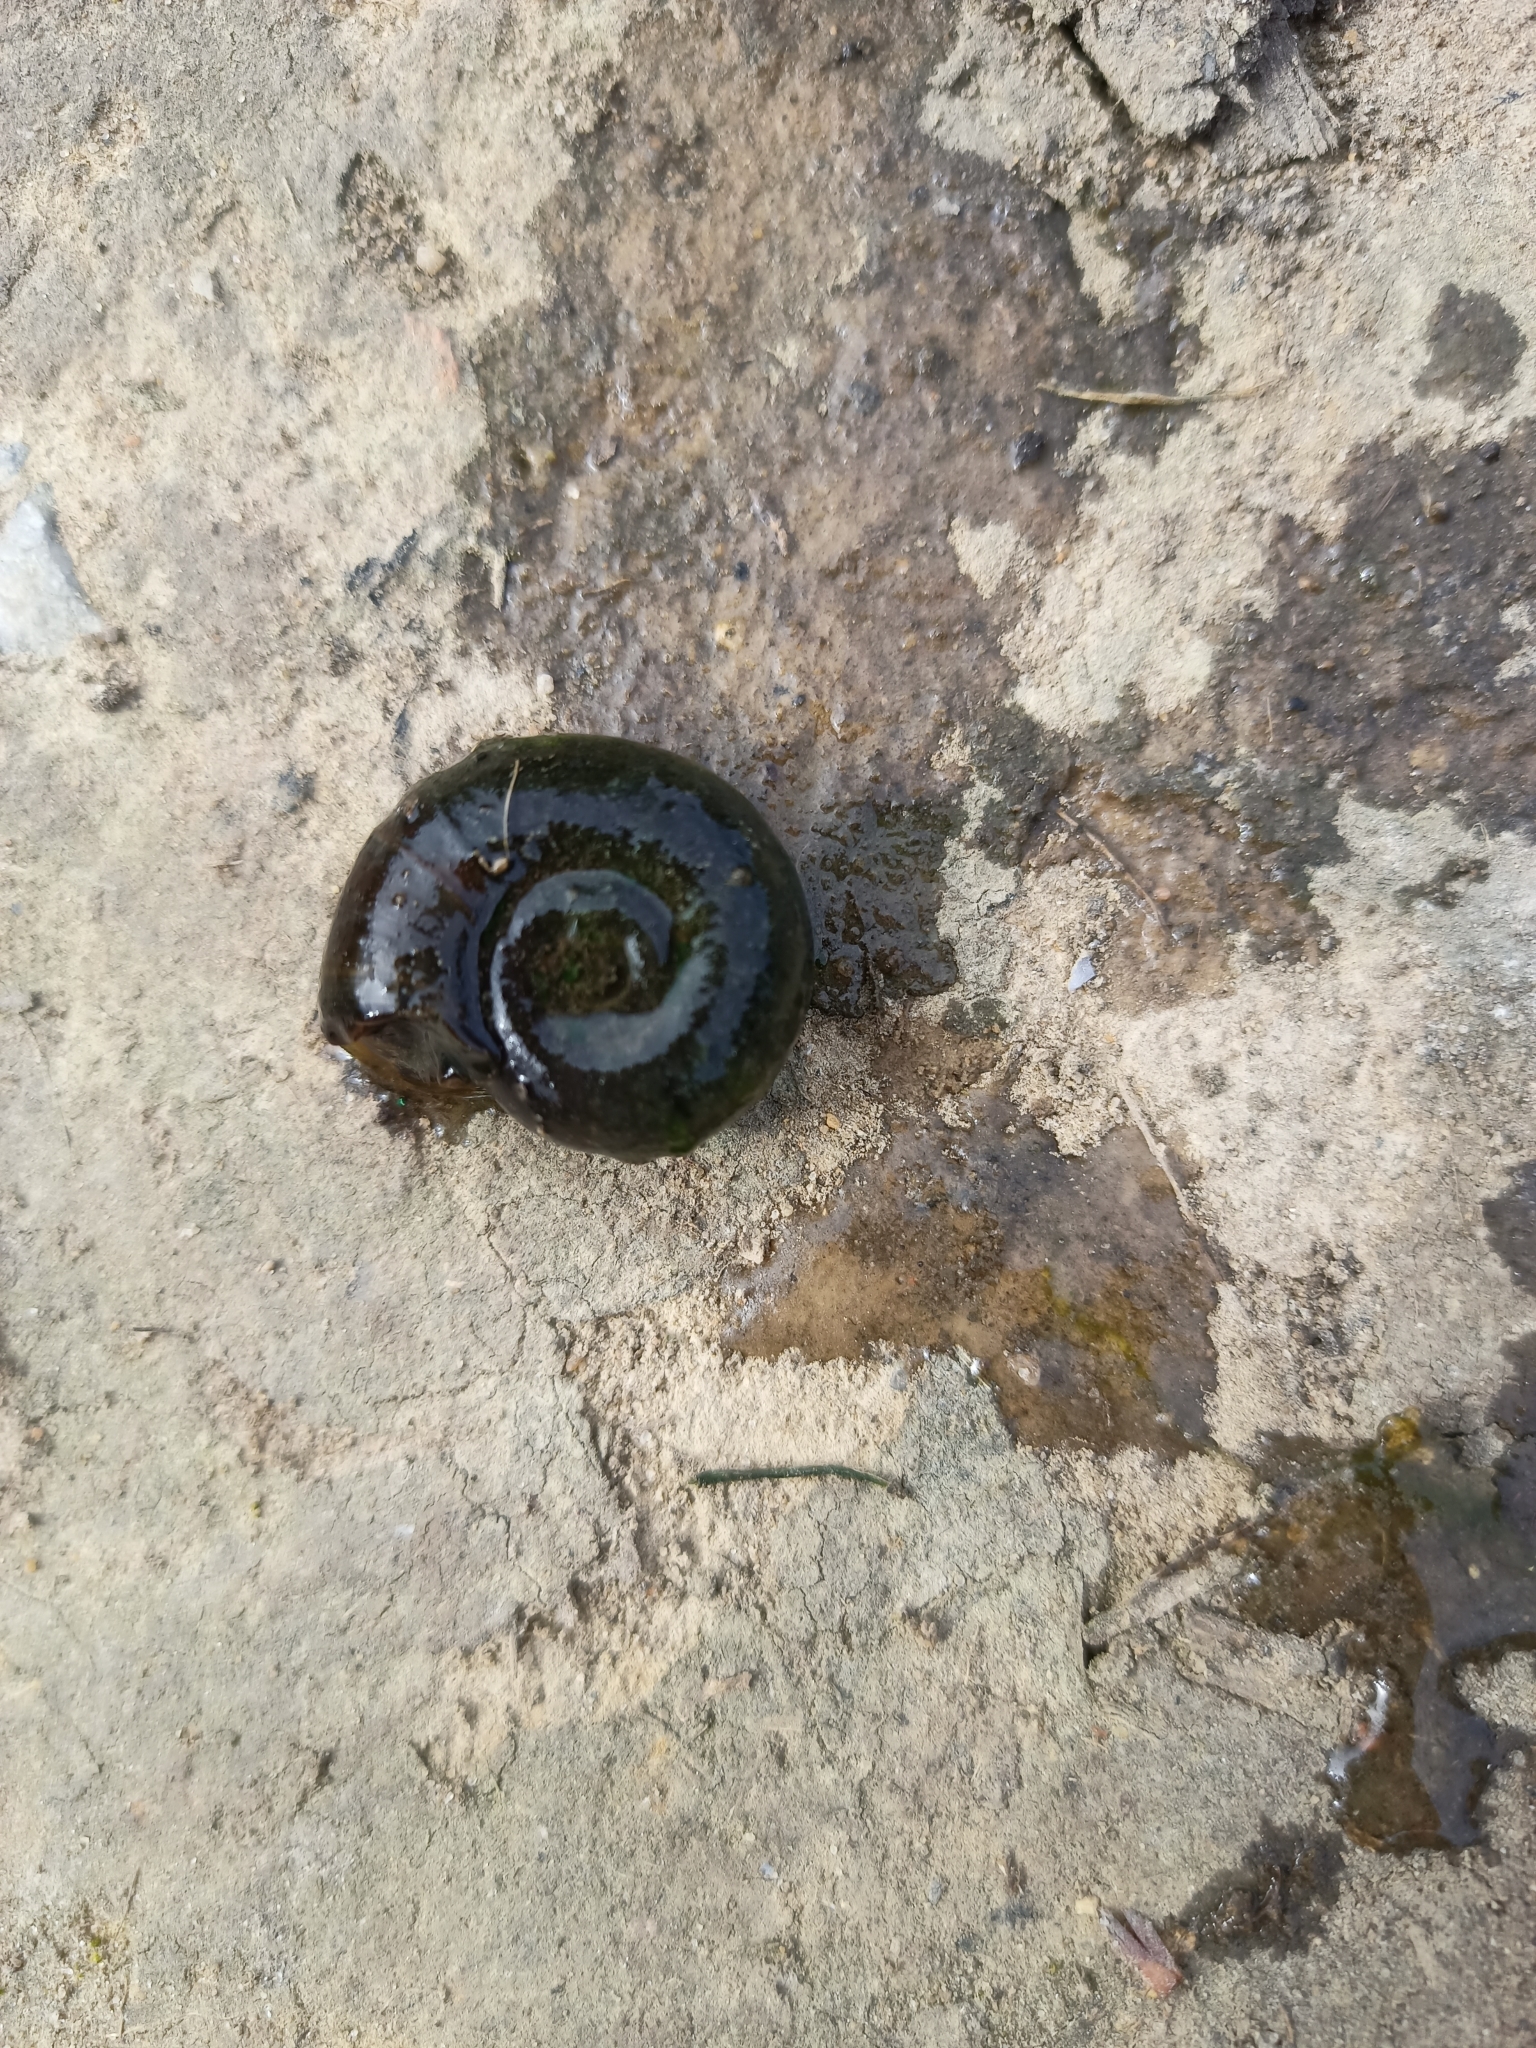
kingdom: Animalia
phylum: Mollusca
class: Gastropoda
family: Planorbidae
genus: Planorbarius
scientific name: Planorbarius corneus
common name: Great ramshorn
